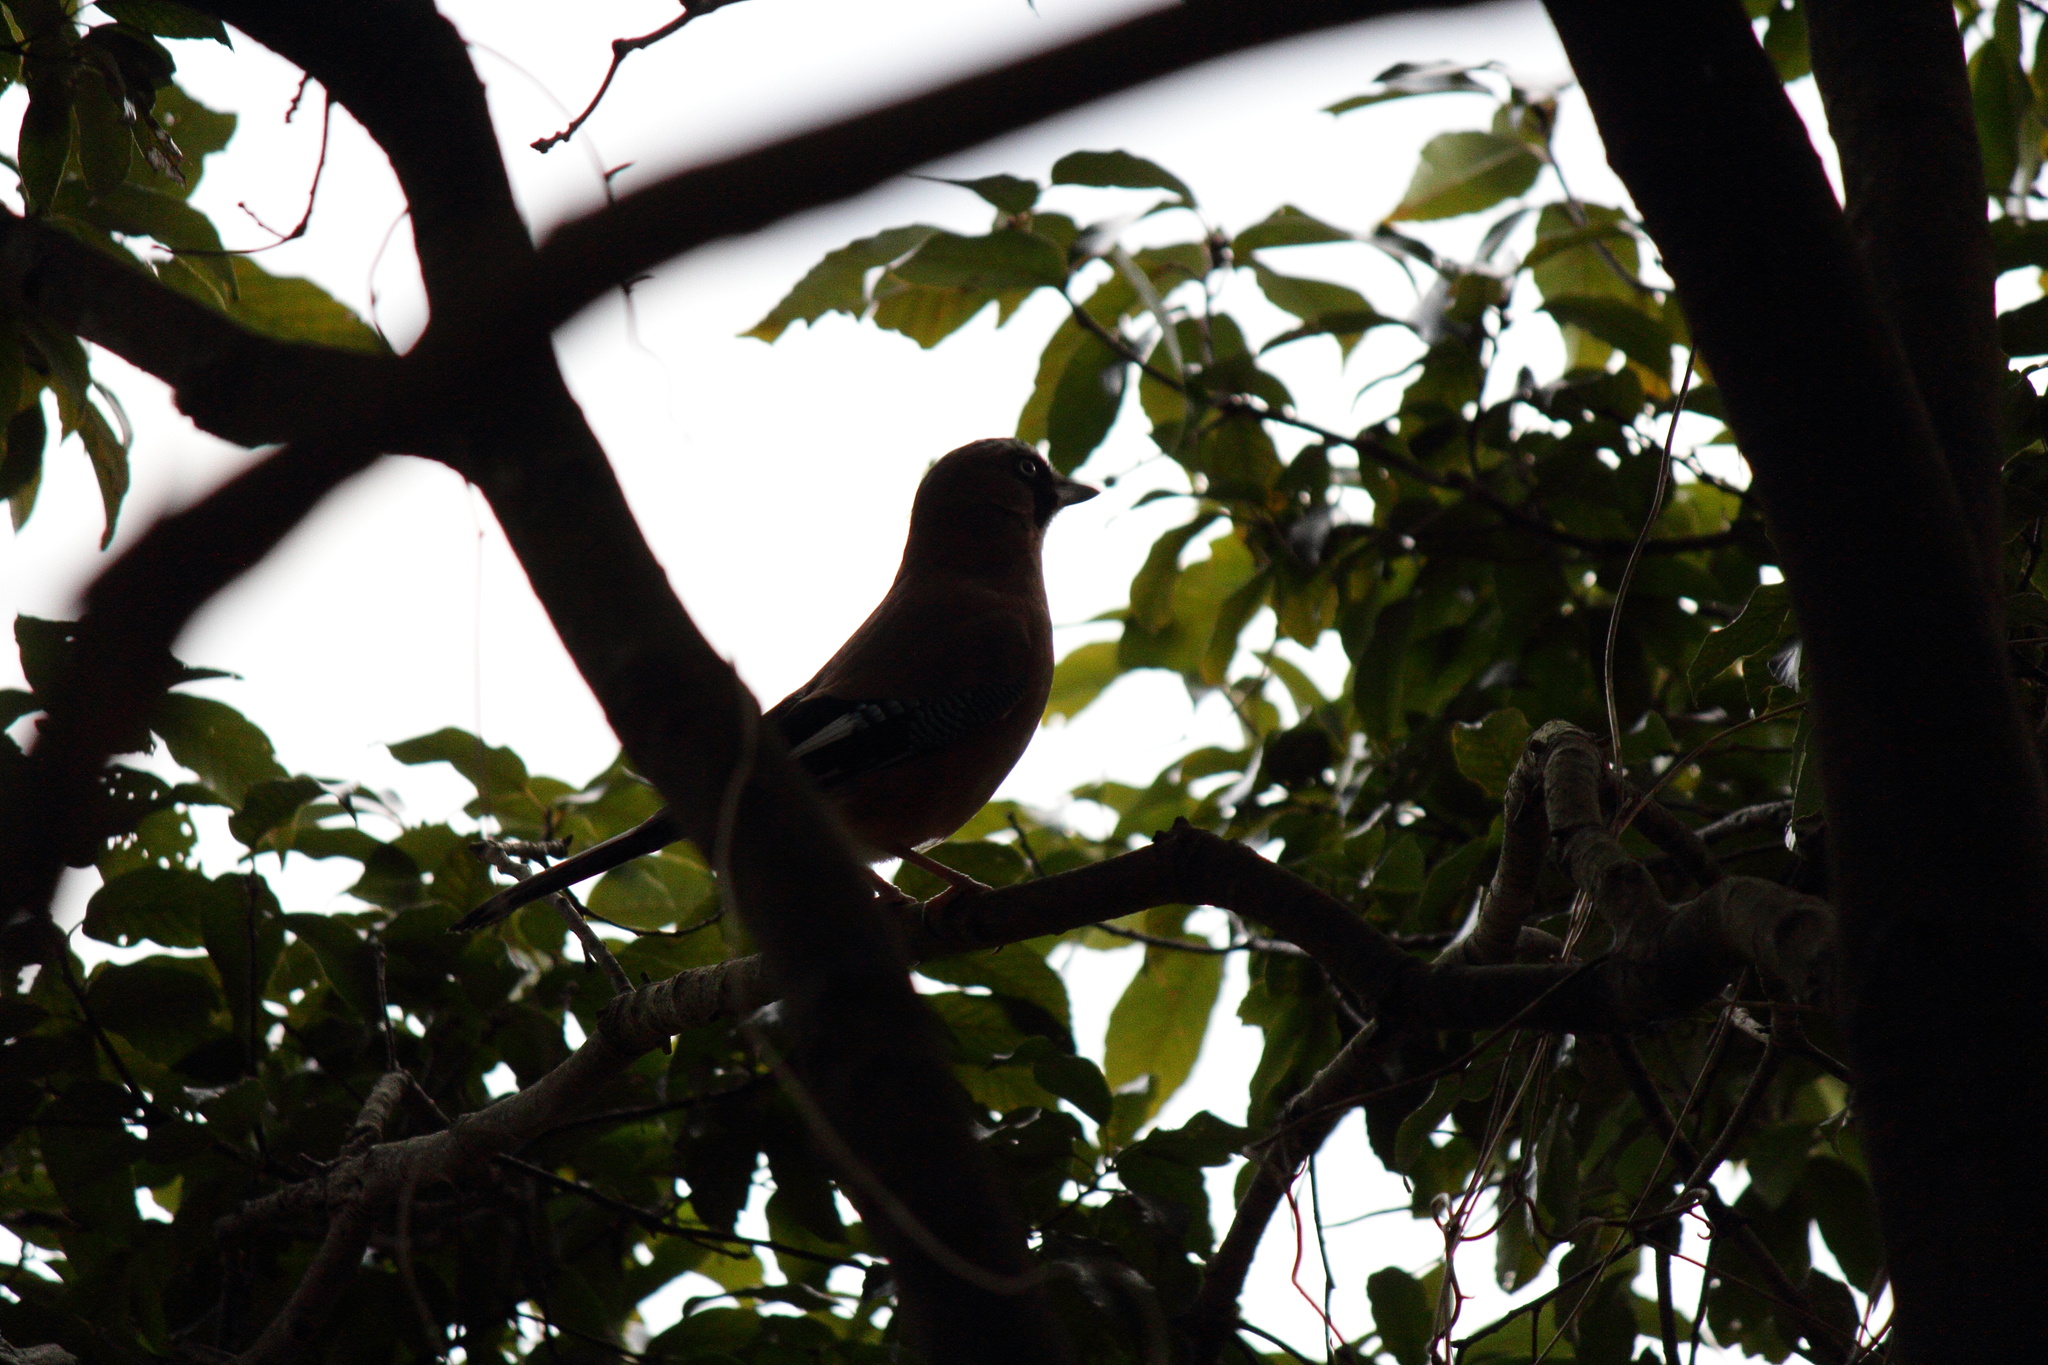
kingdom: Animalia
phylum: Chordata
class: Aves
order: Passeriformes
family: Corvidae
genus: Garrulus
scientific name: Garrulus glandarius
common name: Eurasian jay
